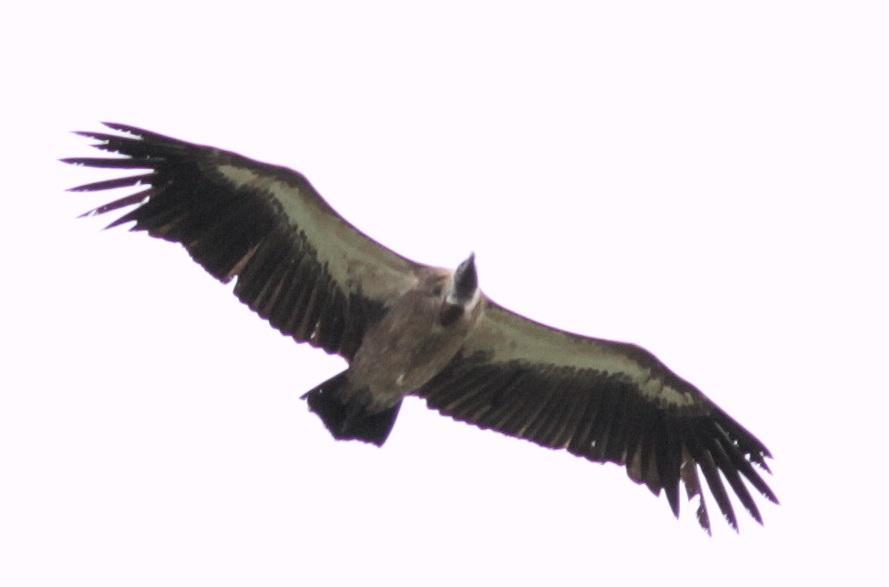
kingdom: Animalia
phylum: Chordata
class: Aves
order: Accipitriformes
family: Accipitridae
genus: Gyps
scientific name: Gyps africanus
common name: White-backed vulture
